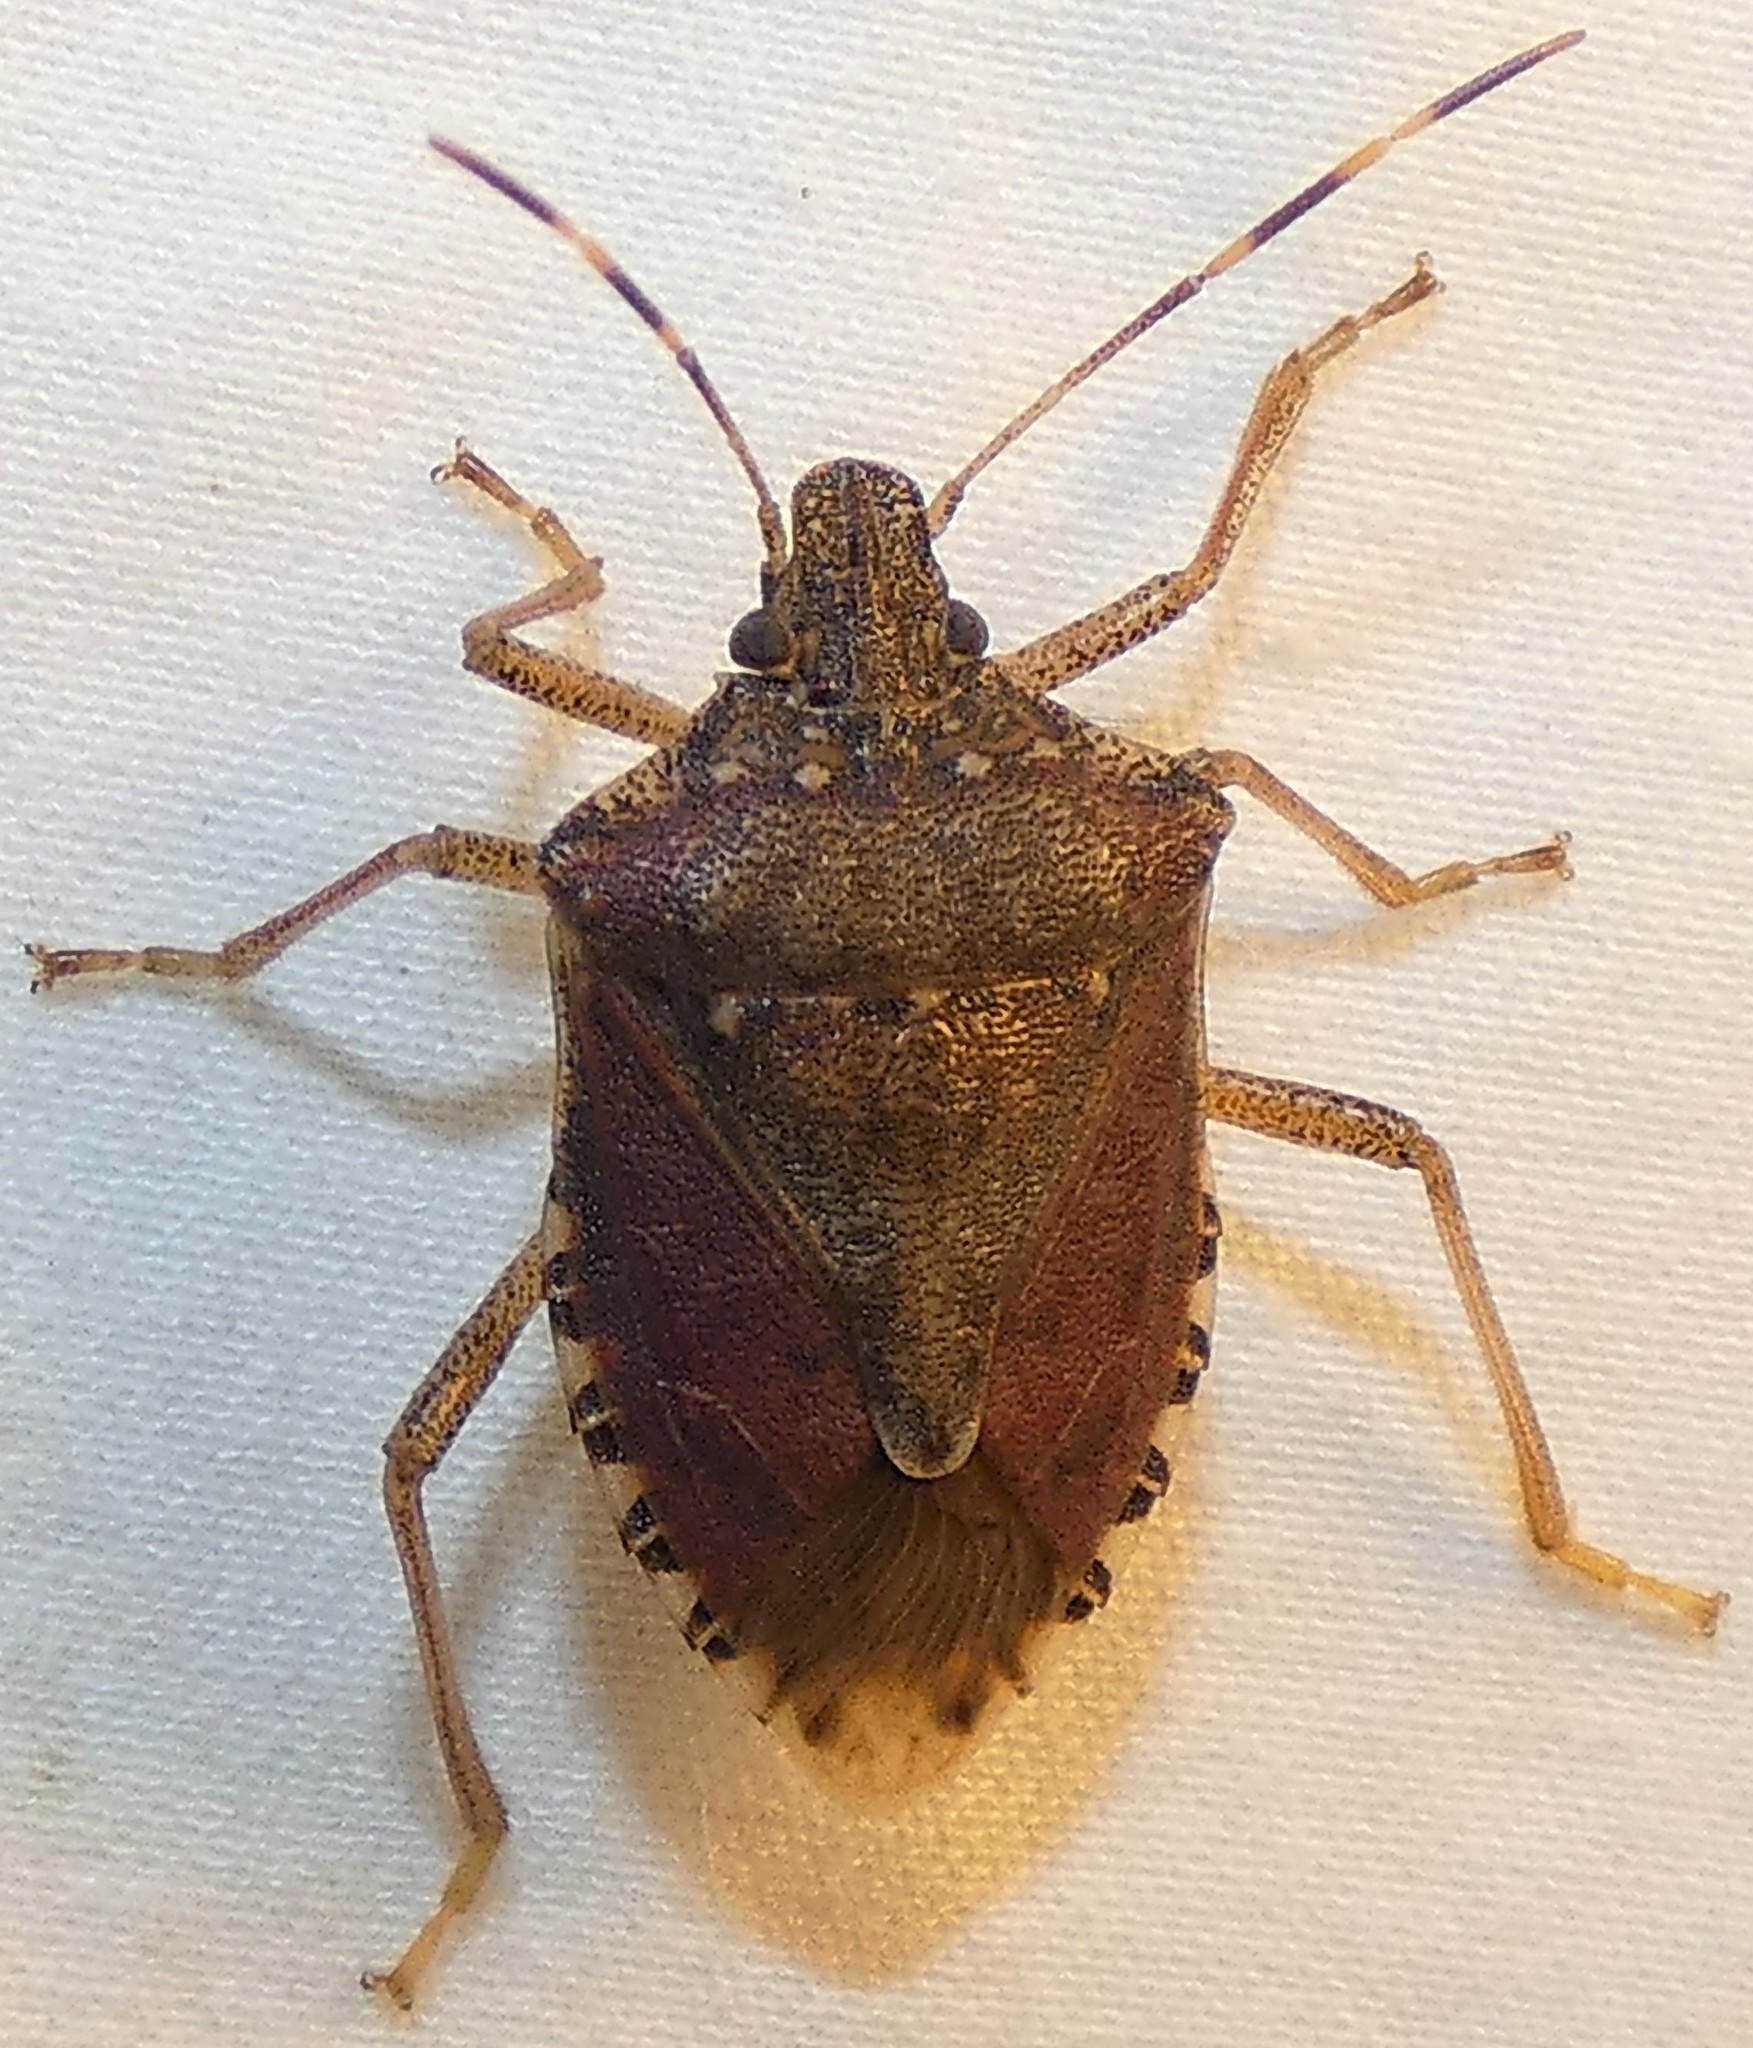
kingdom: Animalia
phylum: Arthropoda
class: Insecta
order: Hemiptera
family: Pentatomidae
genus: Halyomorpha
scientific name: Halyomorpha halys
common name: Brown marmorated stink bug
